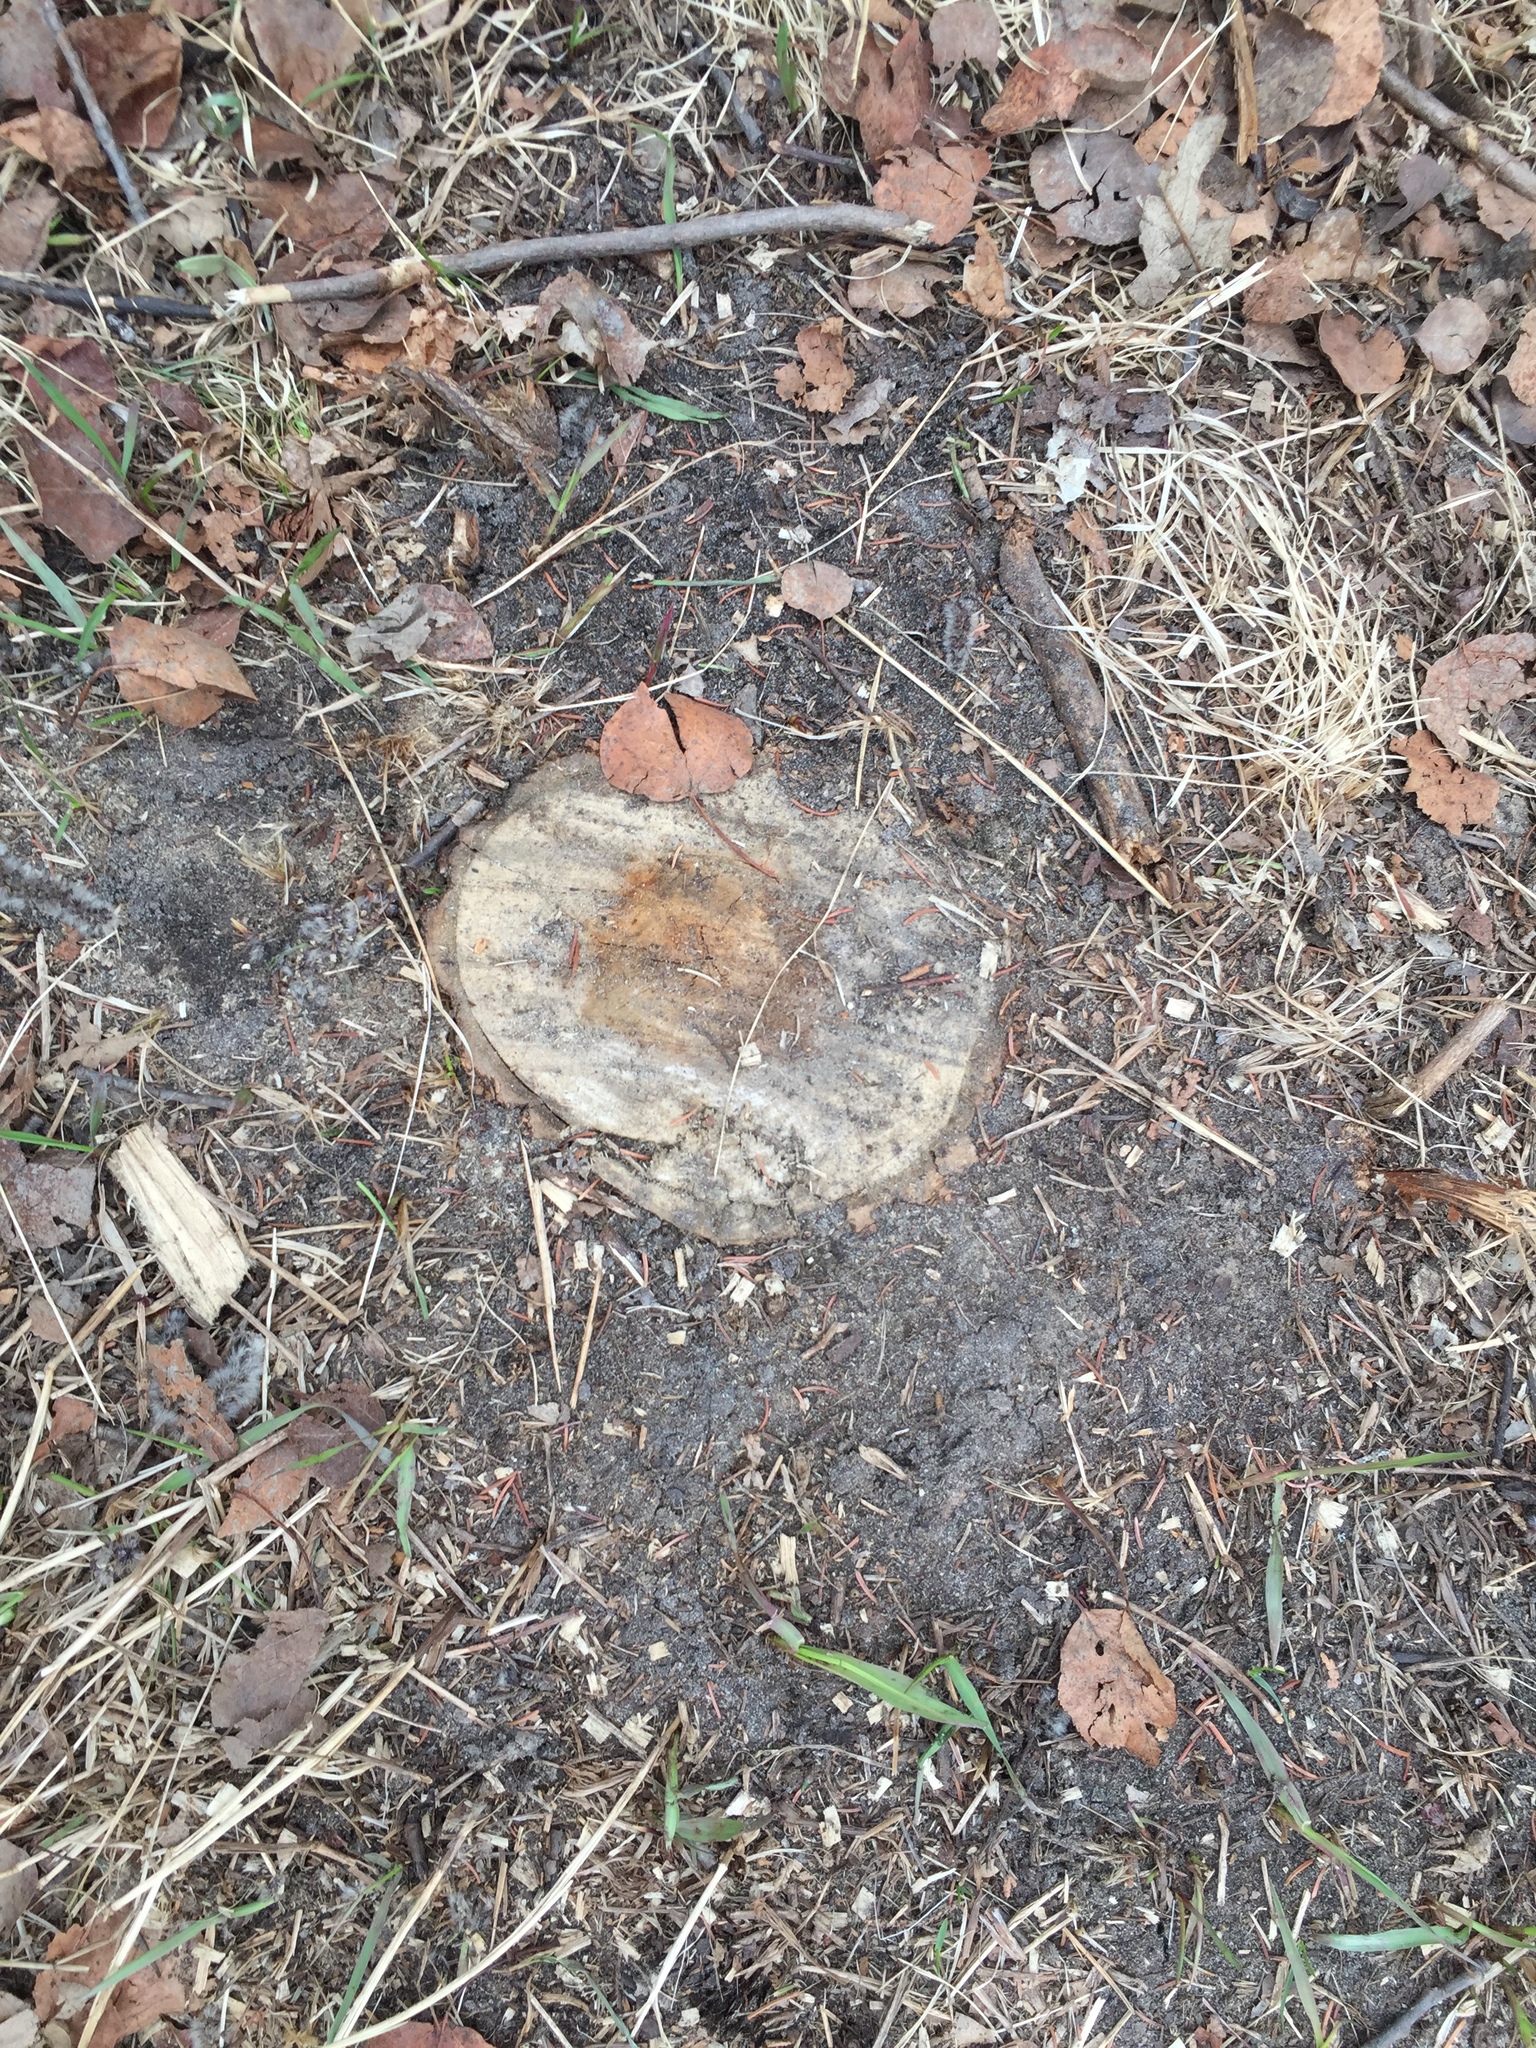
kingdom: Plantae
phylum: Tracheophyta
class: Magnoliopsida
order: Malpighiales
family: Salicaceae
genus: Populus
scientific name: Populus tremuloides
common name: Quaking aspen
